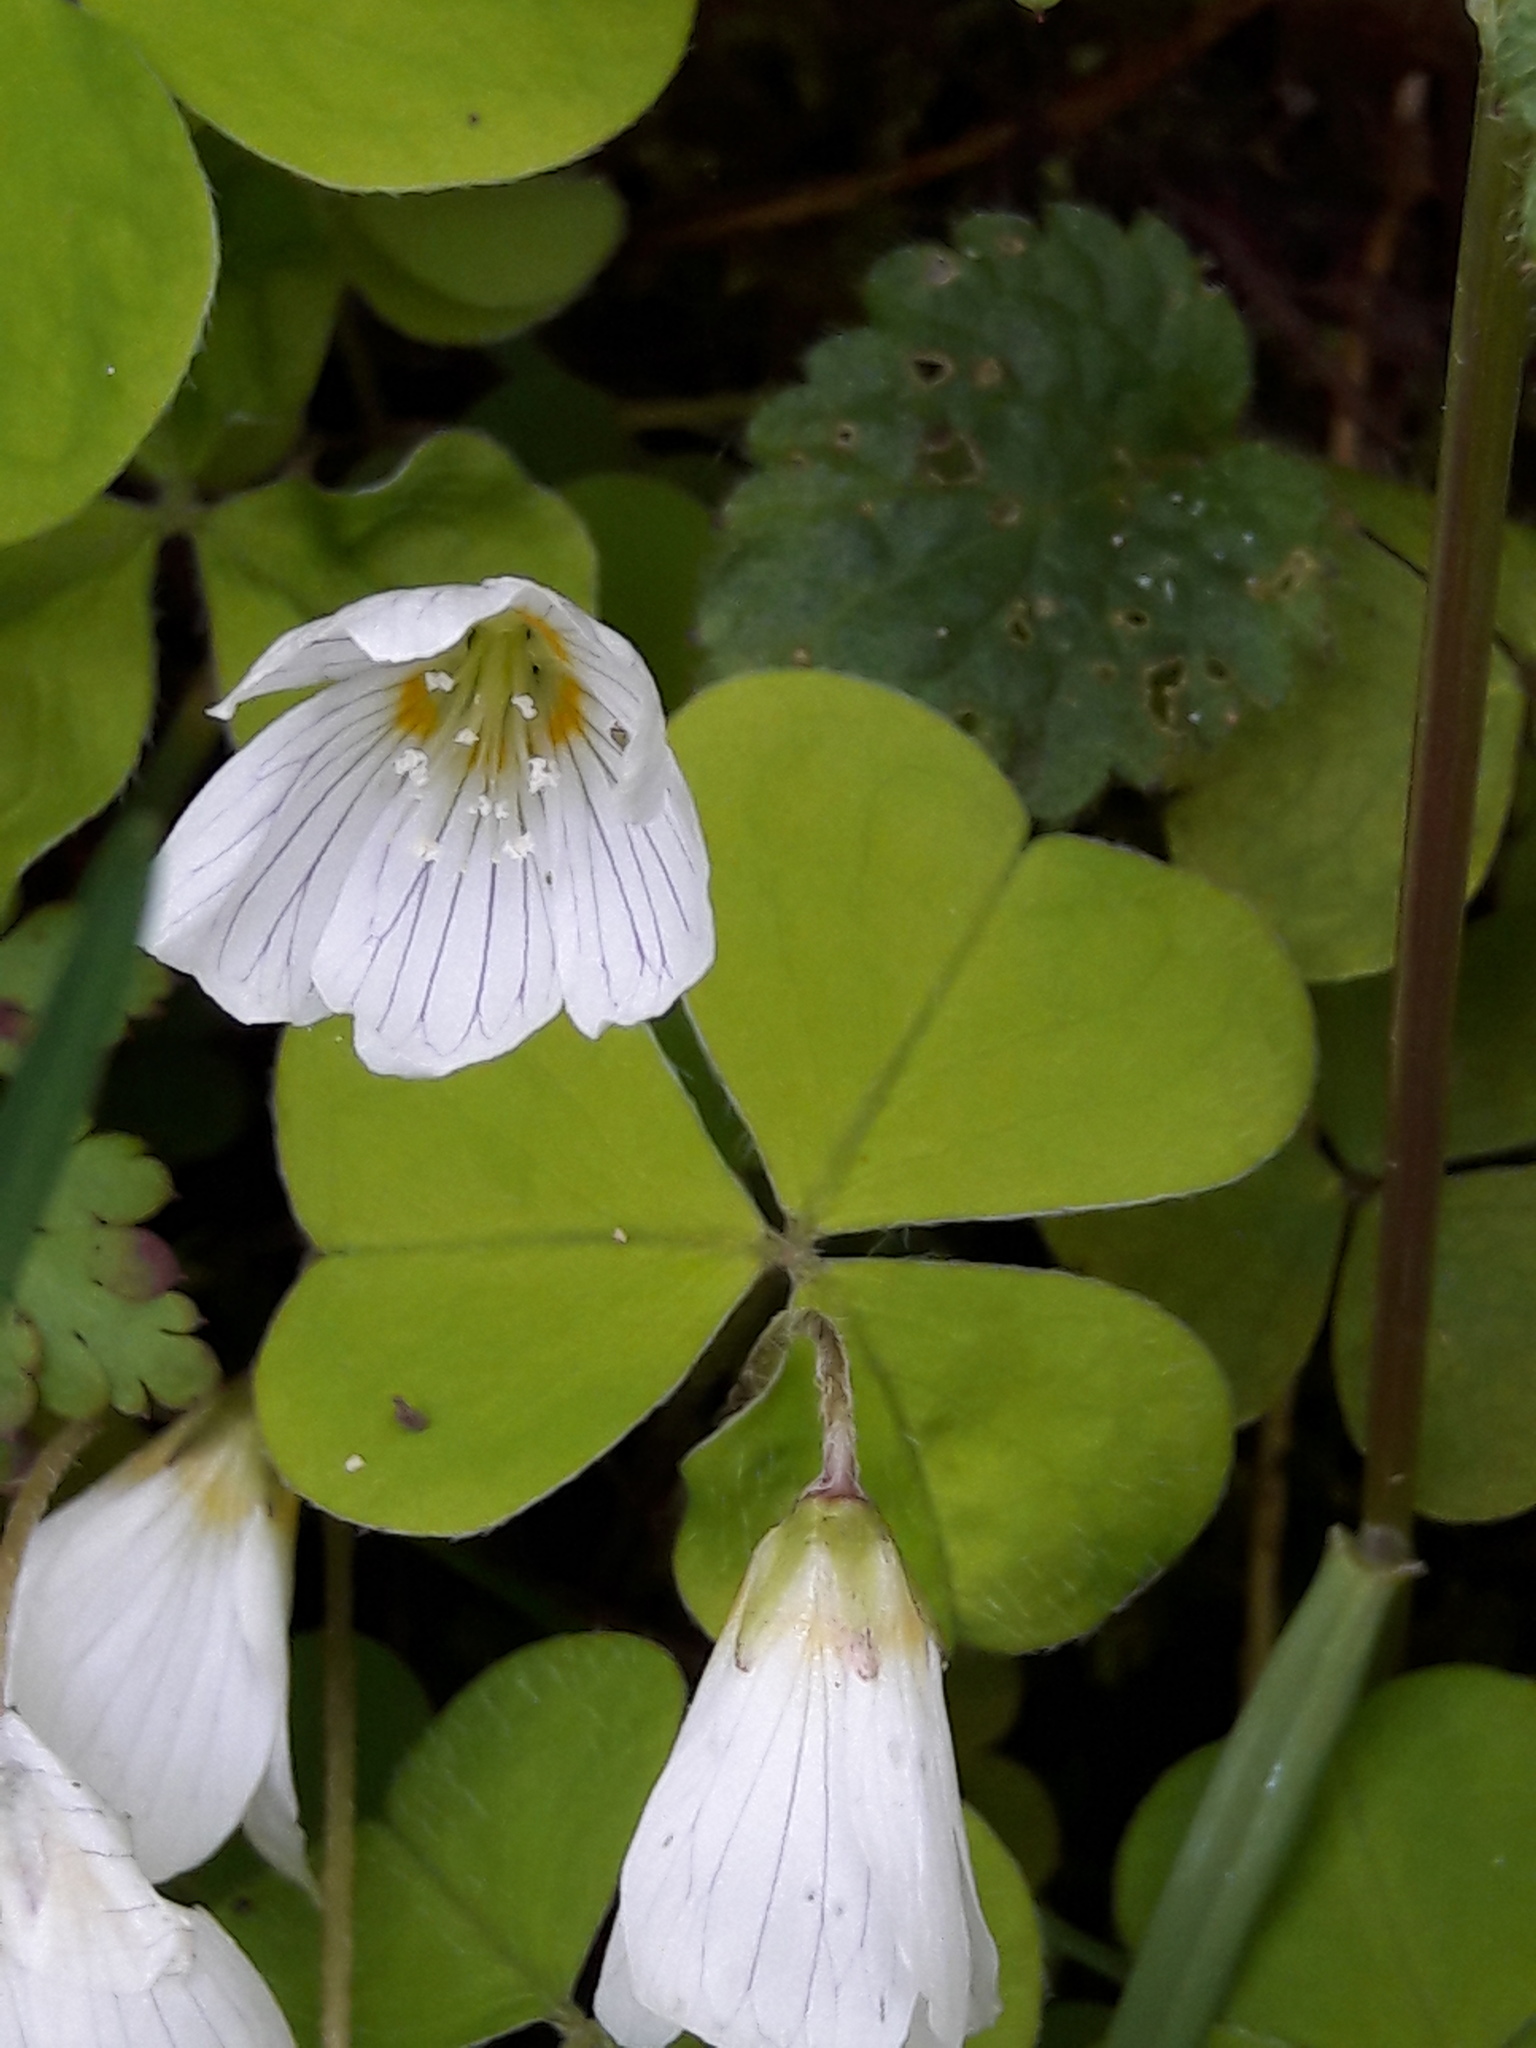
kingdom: Plantae
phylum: Tracheophyta
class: Magnoliopsida
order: Oxalidales
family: Oxalidaceae
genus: Oxalis
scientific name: Oxalis acetosella
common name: Wood-sorrel
